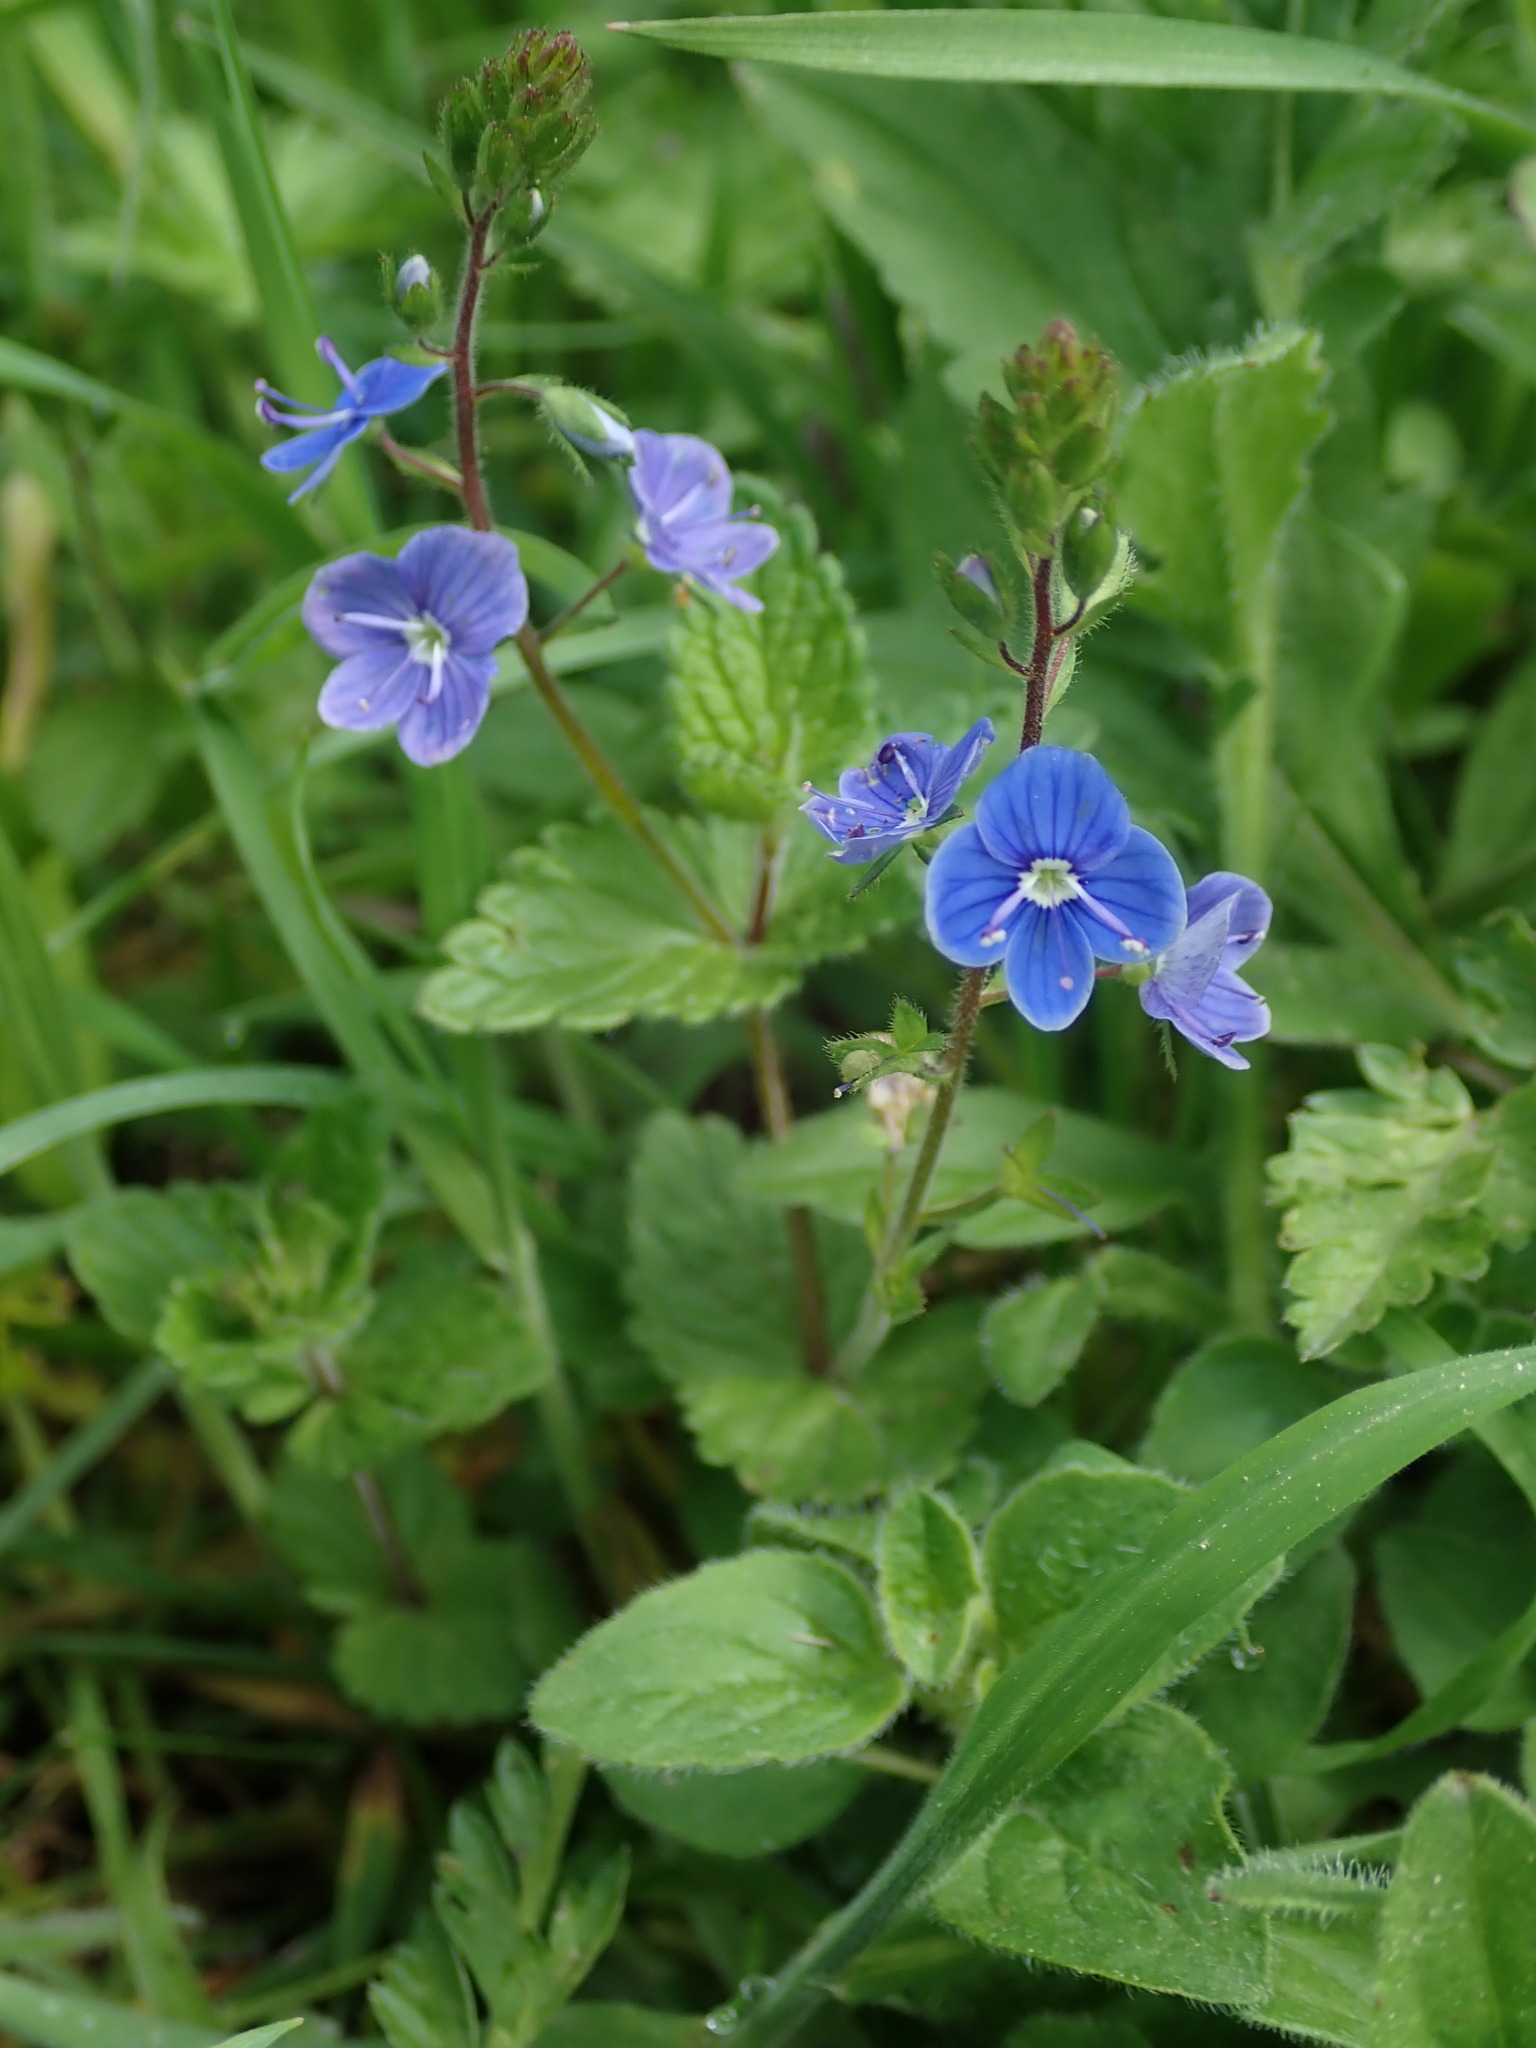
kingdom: Plantae
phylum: Tracheophyta
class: Magnoliopsida
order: Lamiales
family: Plantaginaceae
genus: Veronica
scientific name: Veronica chamaedrys
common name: Germander speedwell
